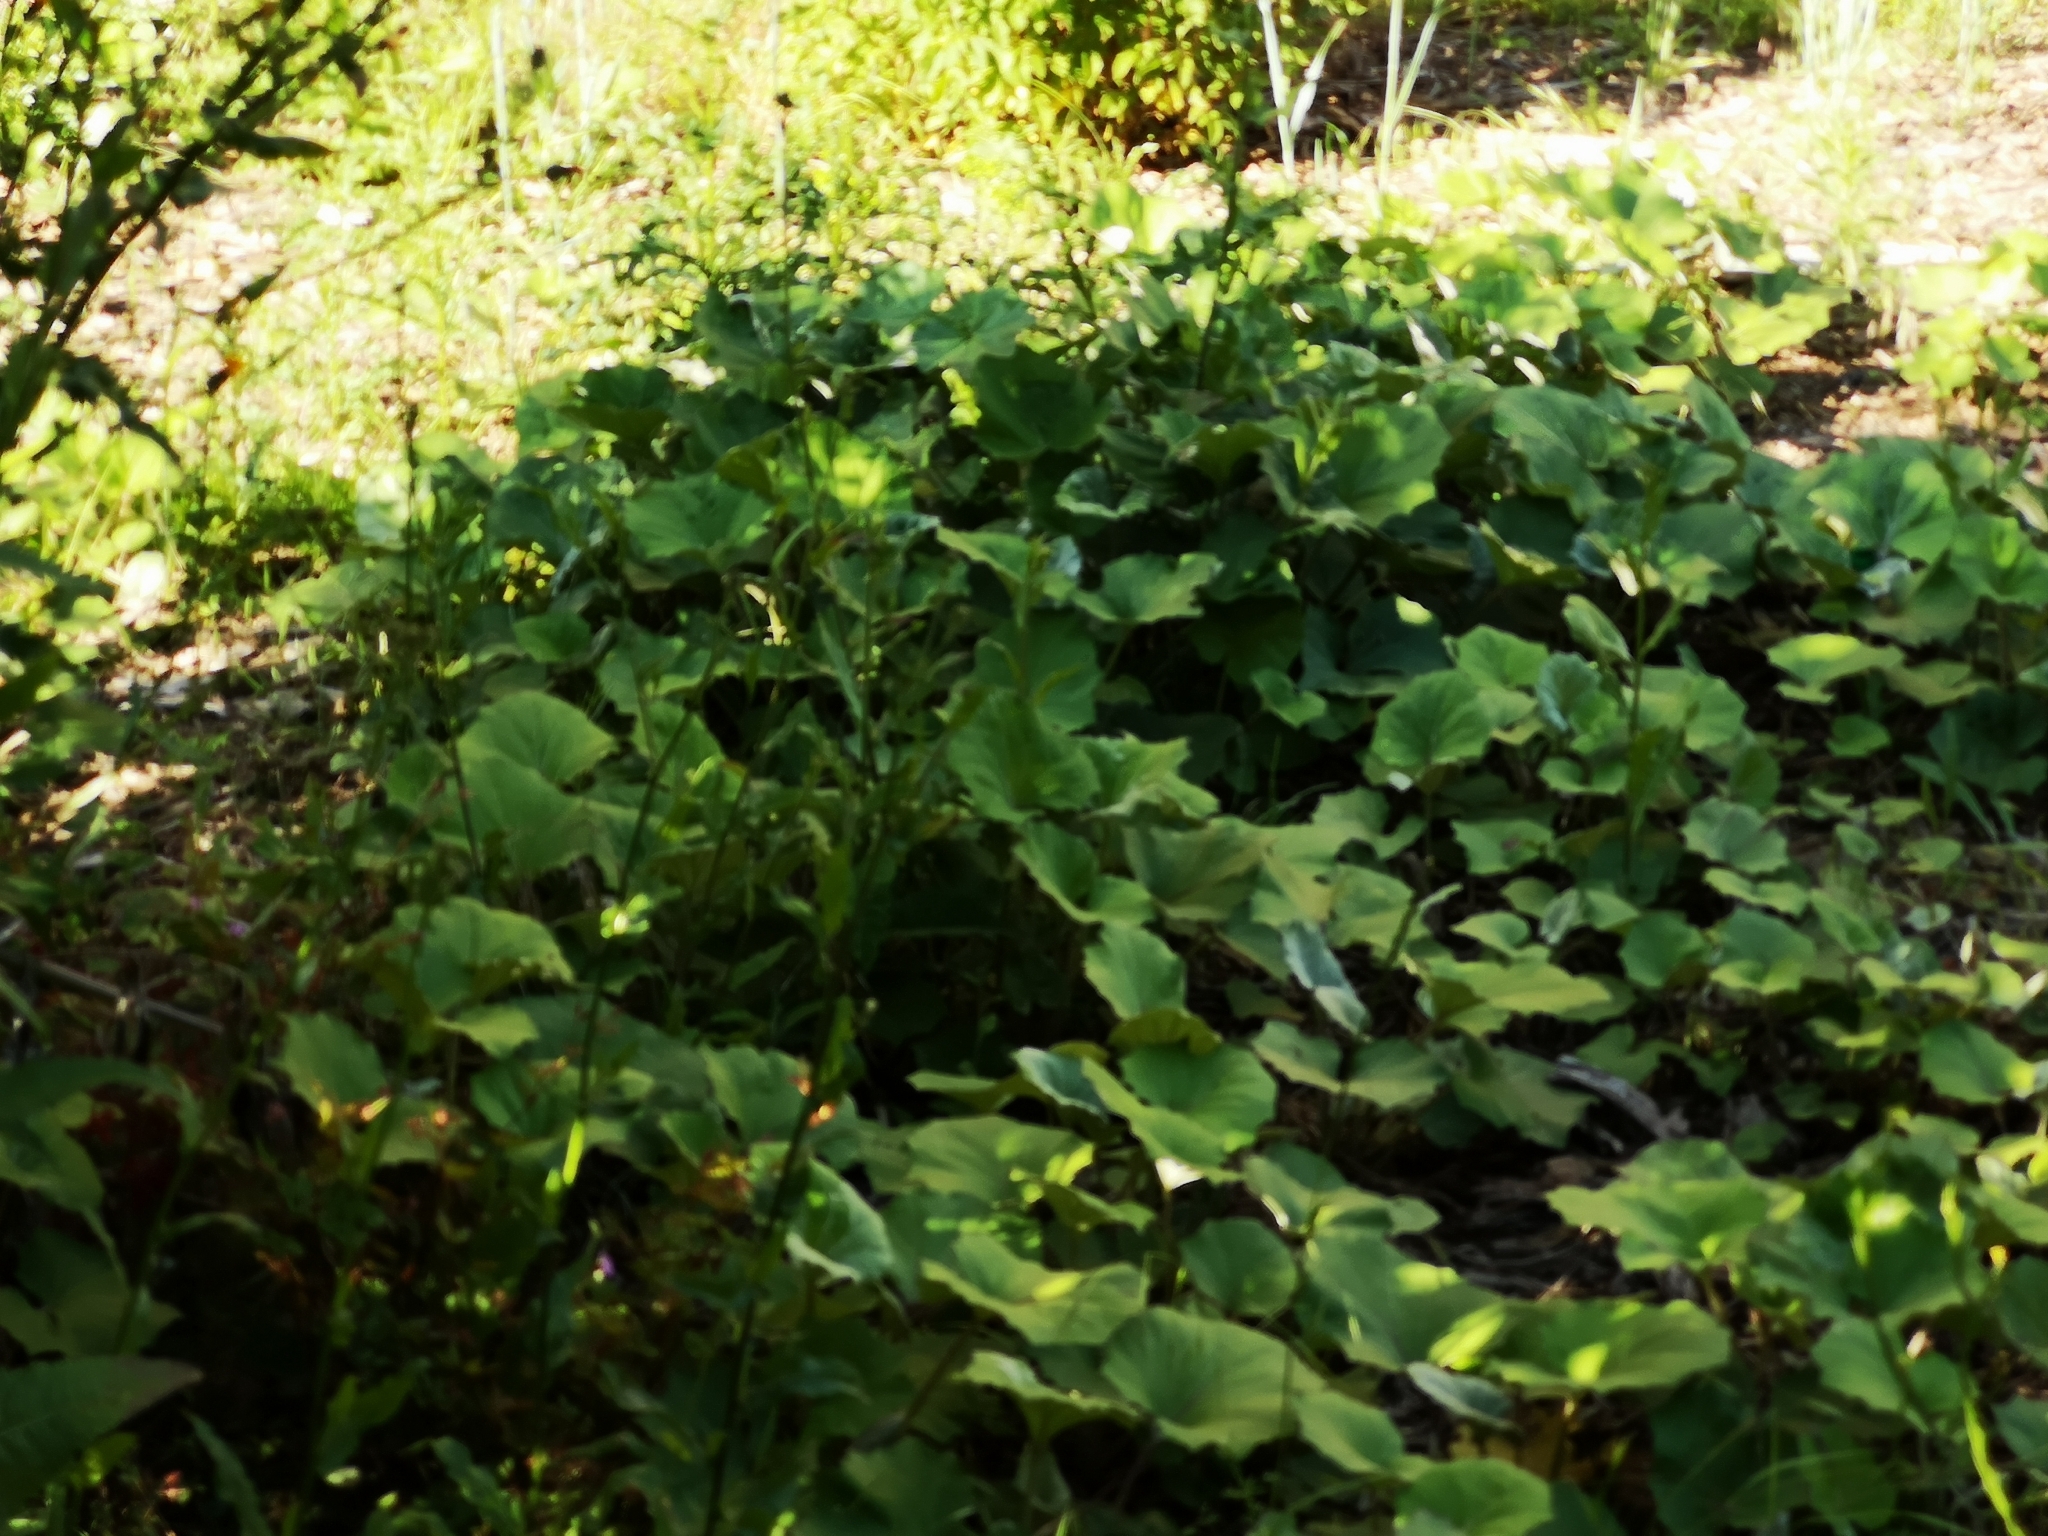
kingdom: Plantae
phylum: Tracheophyta
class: Magnoliopsida
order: Asterales
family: Asteraceae
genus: Tussilago
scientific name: Tussilago farfara
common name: Coltsfoot
